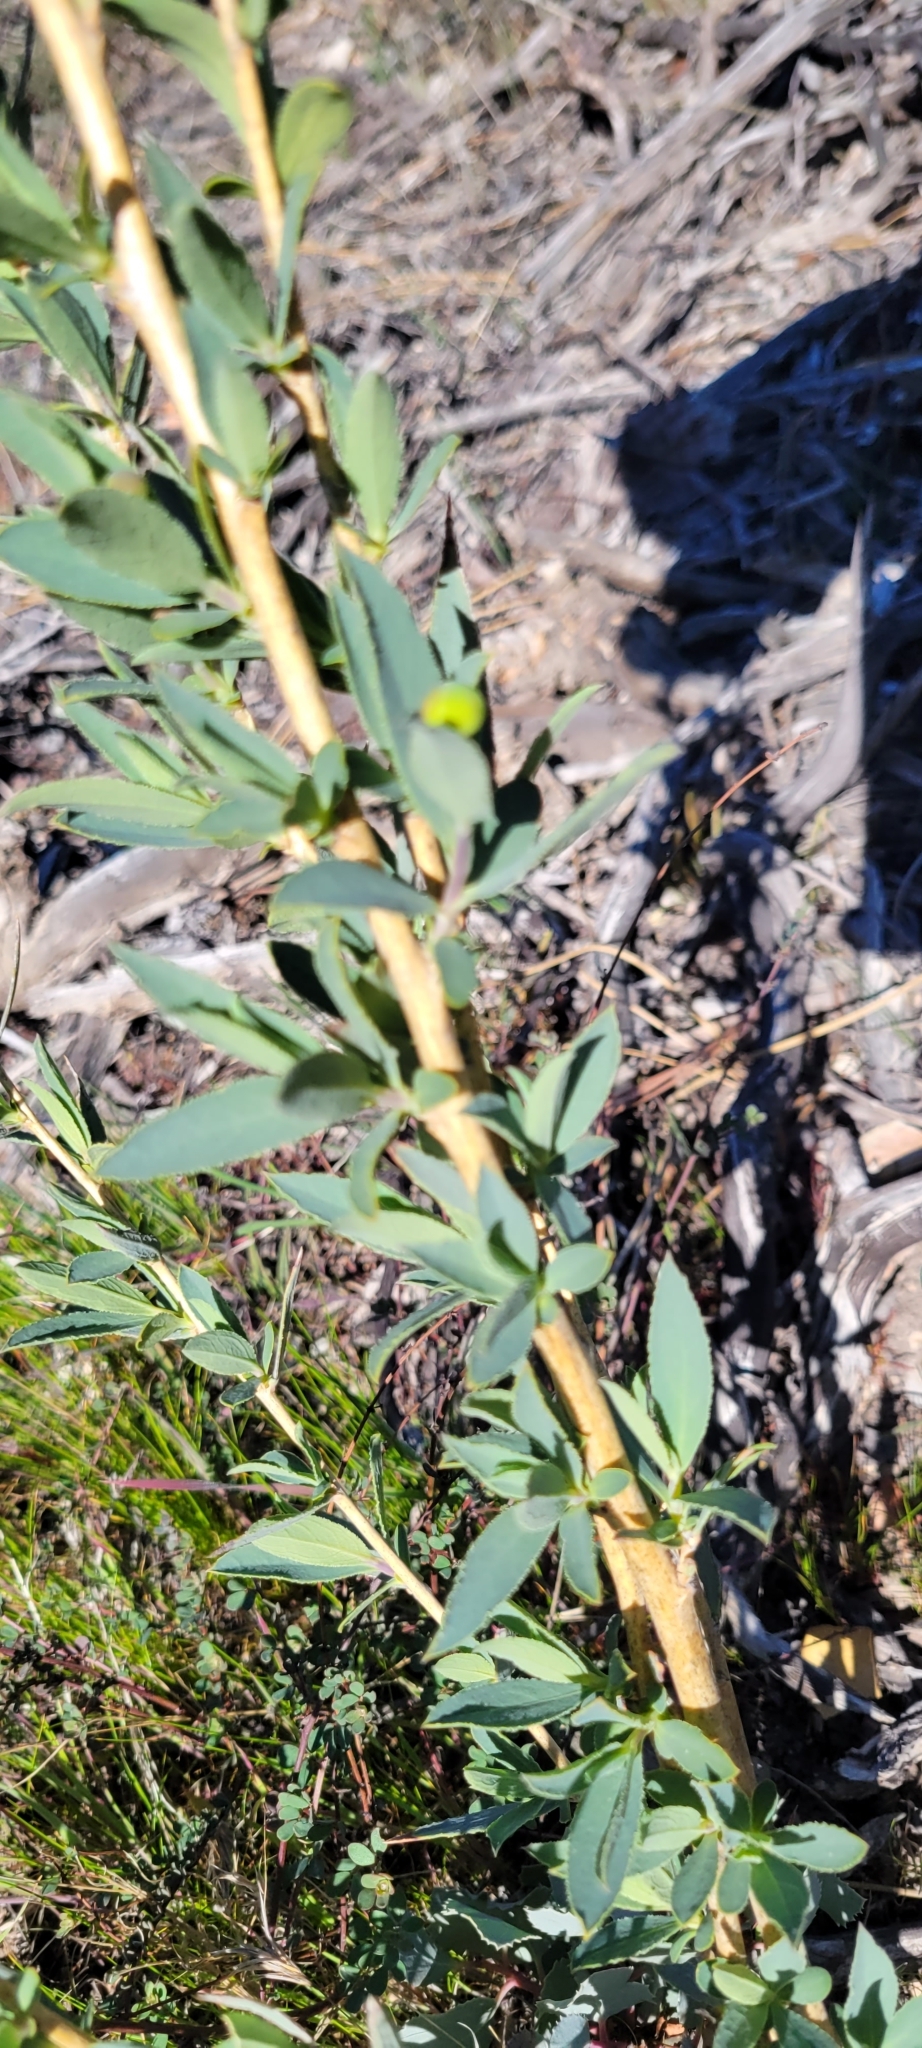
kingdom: Plantae
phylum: Tracheophyta
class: Magnoliopsida
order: Ranunculales
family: Papaveraceae
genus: Dendromecon
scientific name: Dendromecon rigida
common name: Tree poppy
